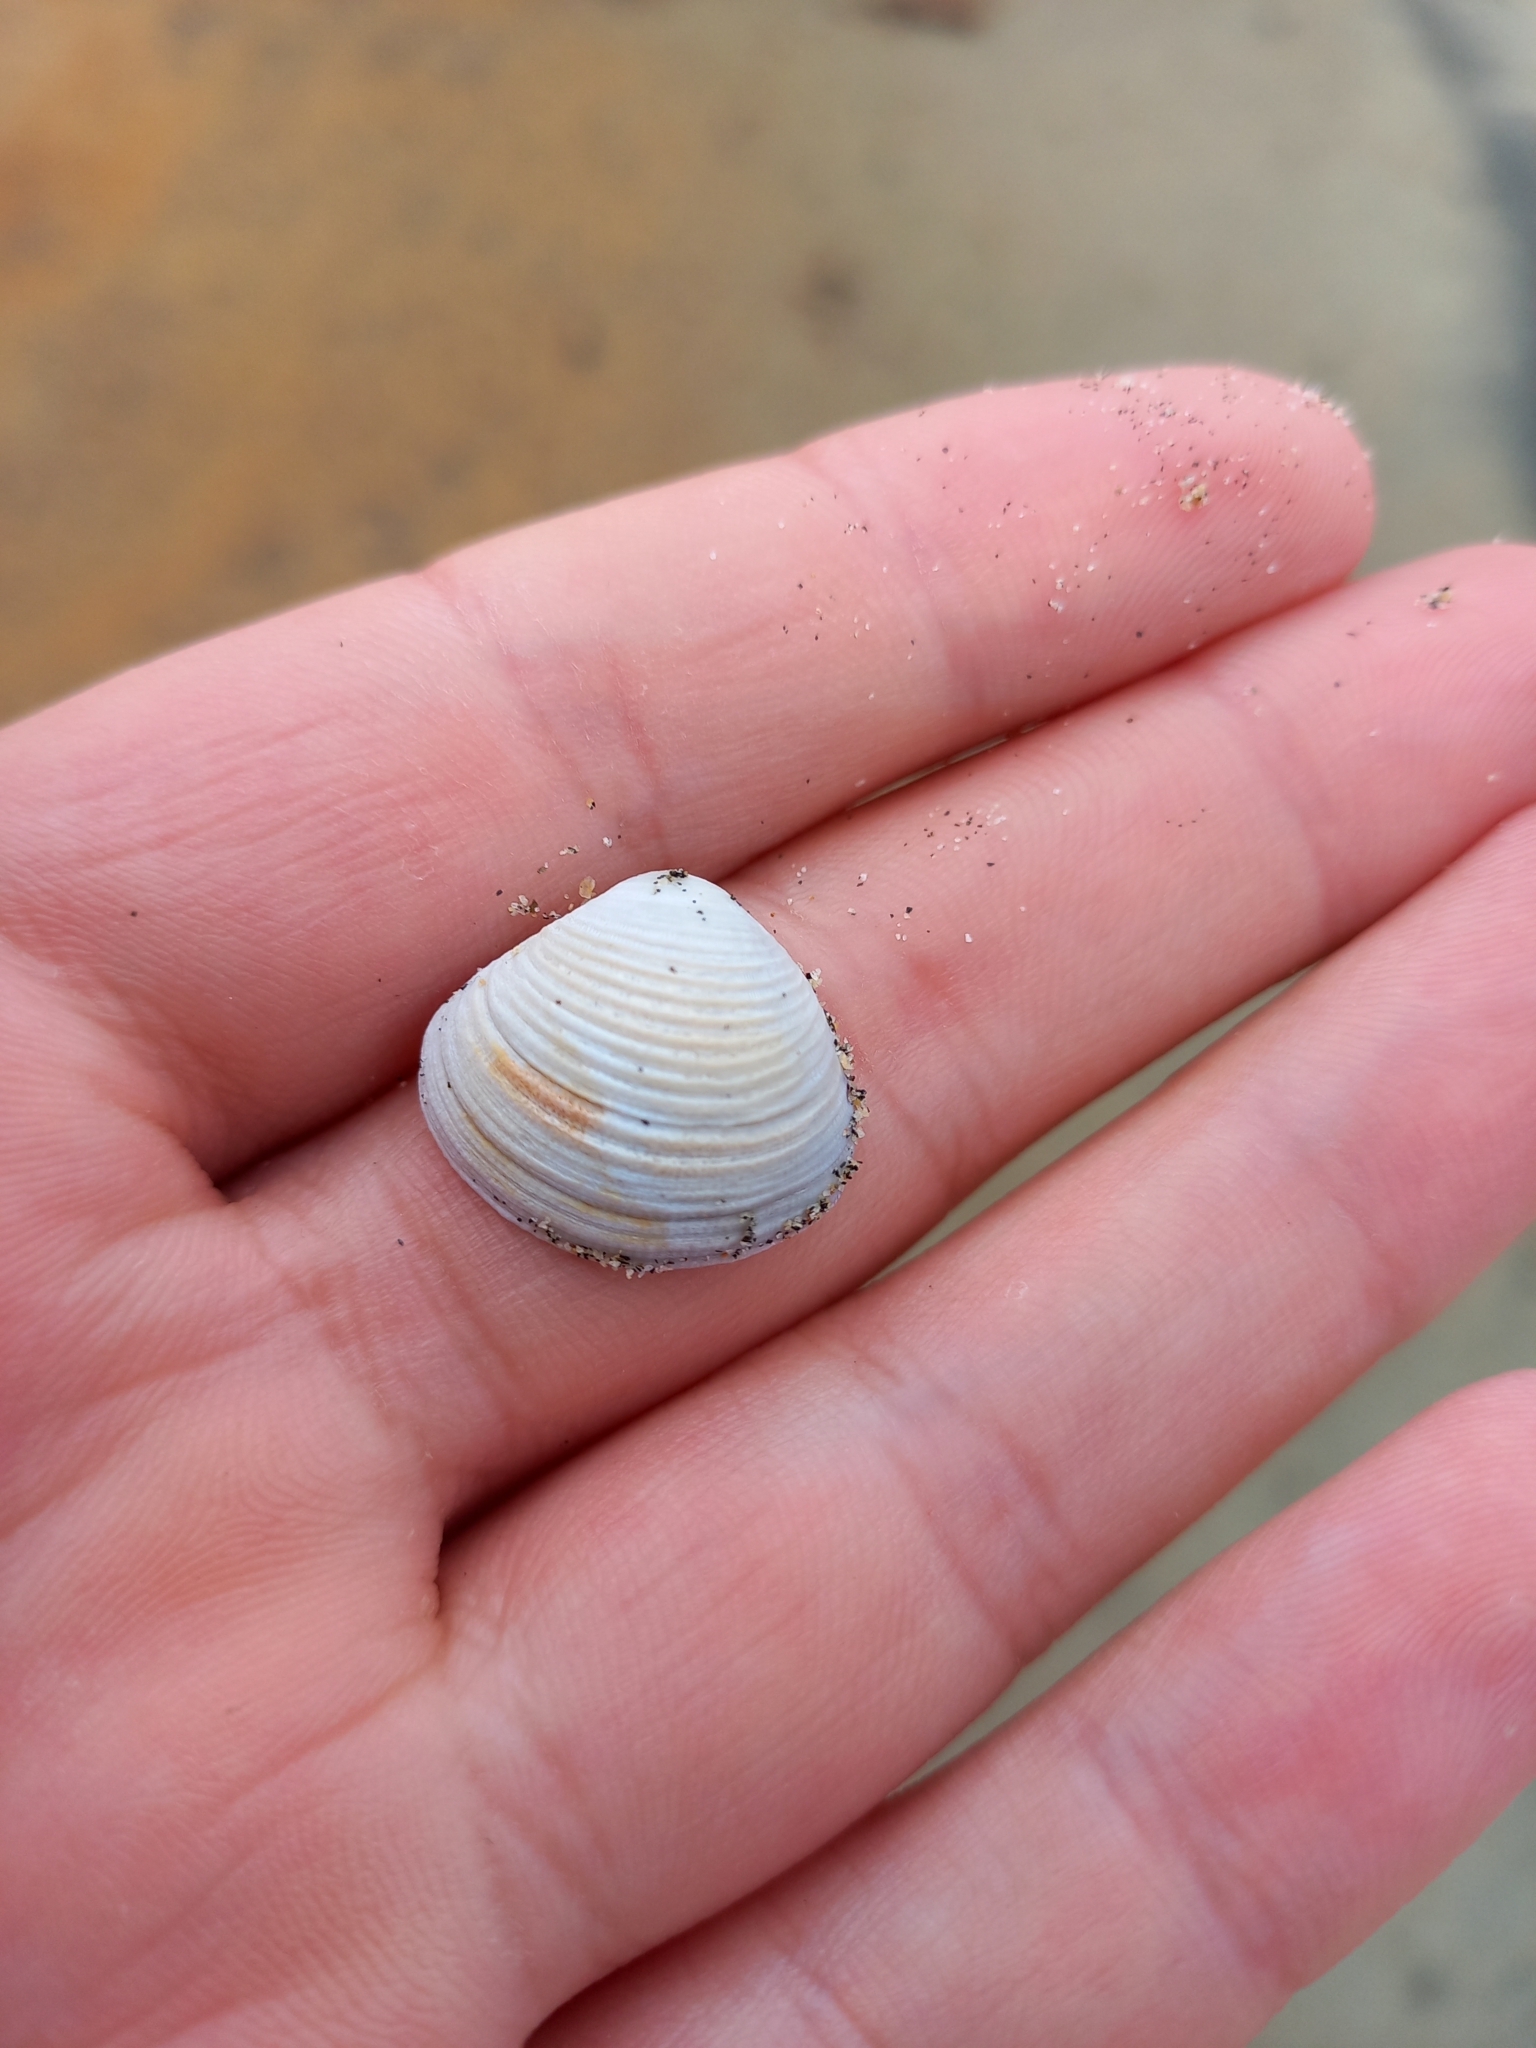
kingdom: Animalia
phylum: Mollusca
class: Bivalvia
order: Venerida
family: Veneridae
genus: Tawera
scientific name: Tawera spissa
